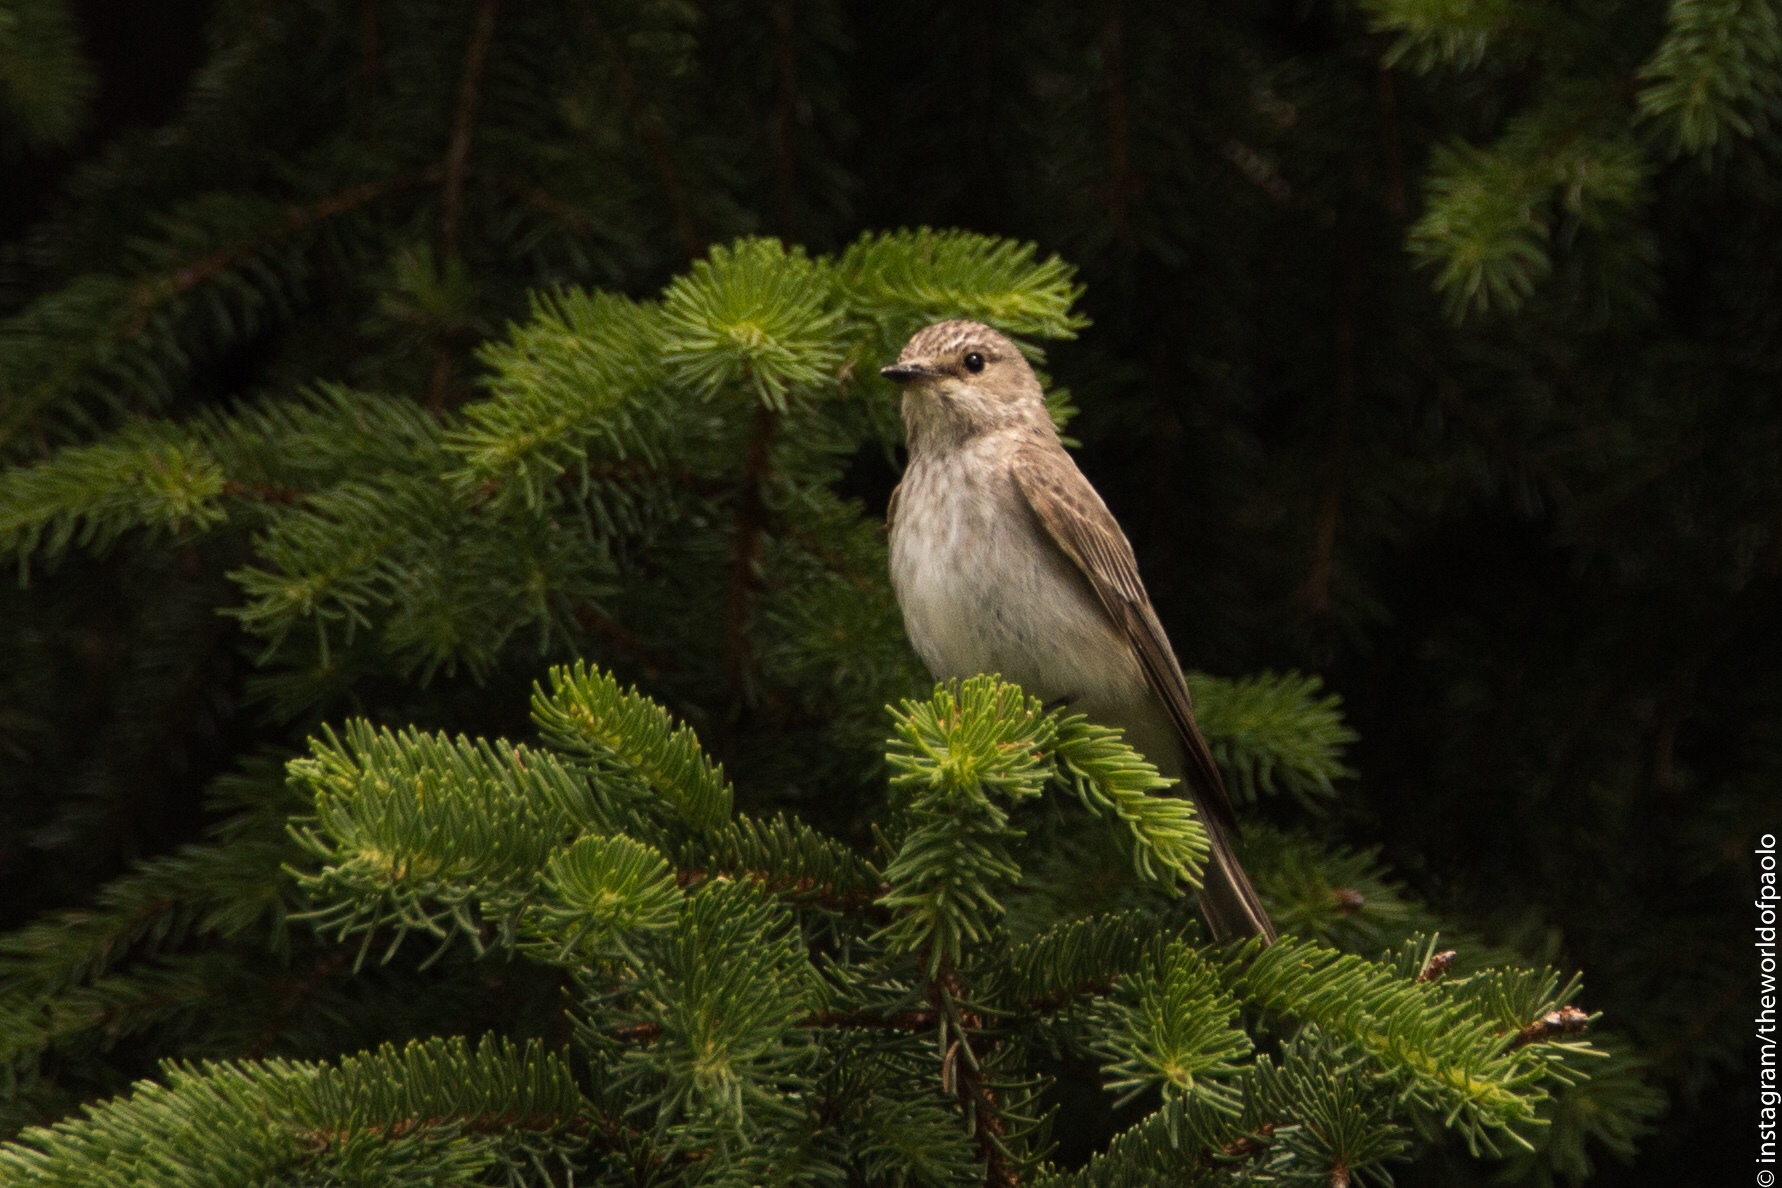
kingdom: Animalia
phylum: Chordata
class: Aves
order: Passeriformes
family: Muscicapidae
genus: Muscicapa
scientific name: Muscicapa striata
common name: Spotted flycatcher
